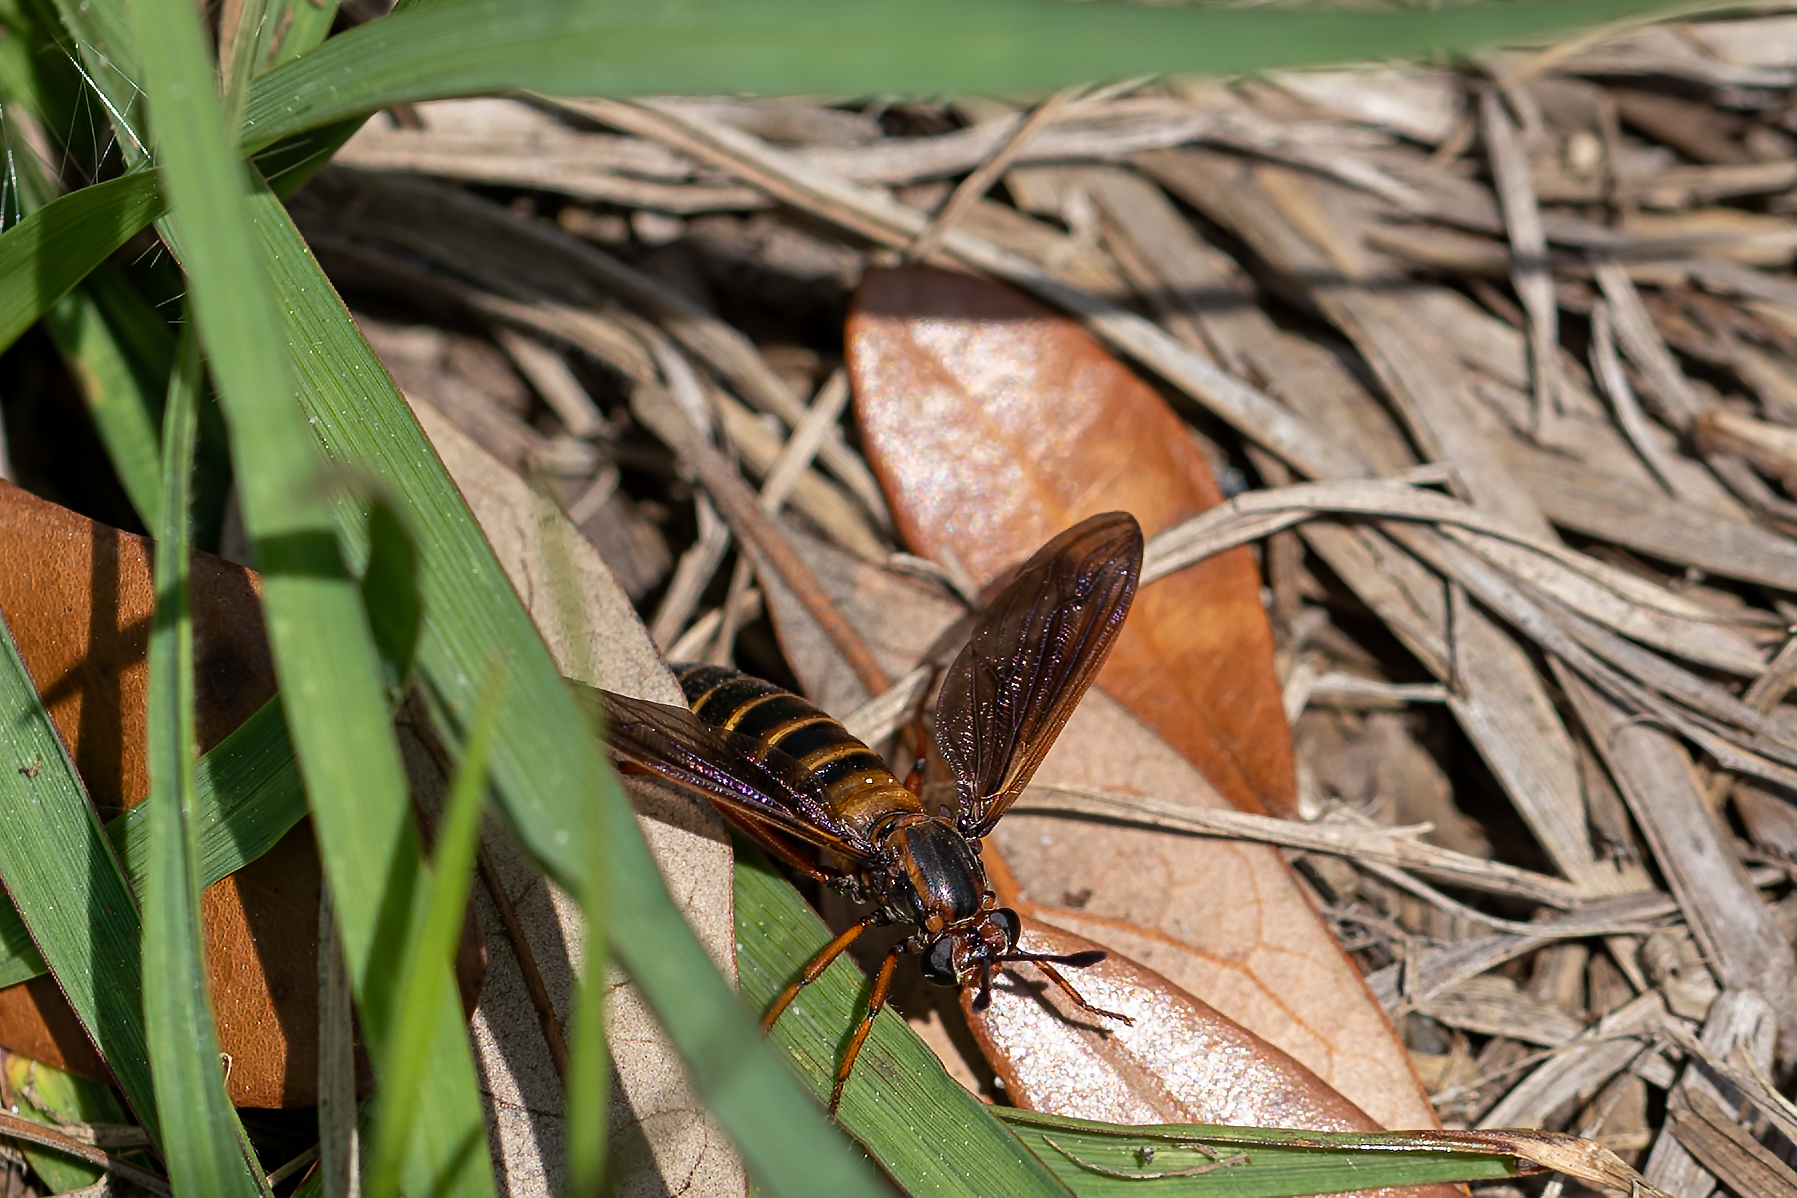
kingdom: Animalia
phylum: Arthropoda
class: Insecta
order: Diptera
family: Mydidae
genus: Phyllomydas
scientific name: Phyllomydas parvulus
